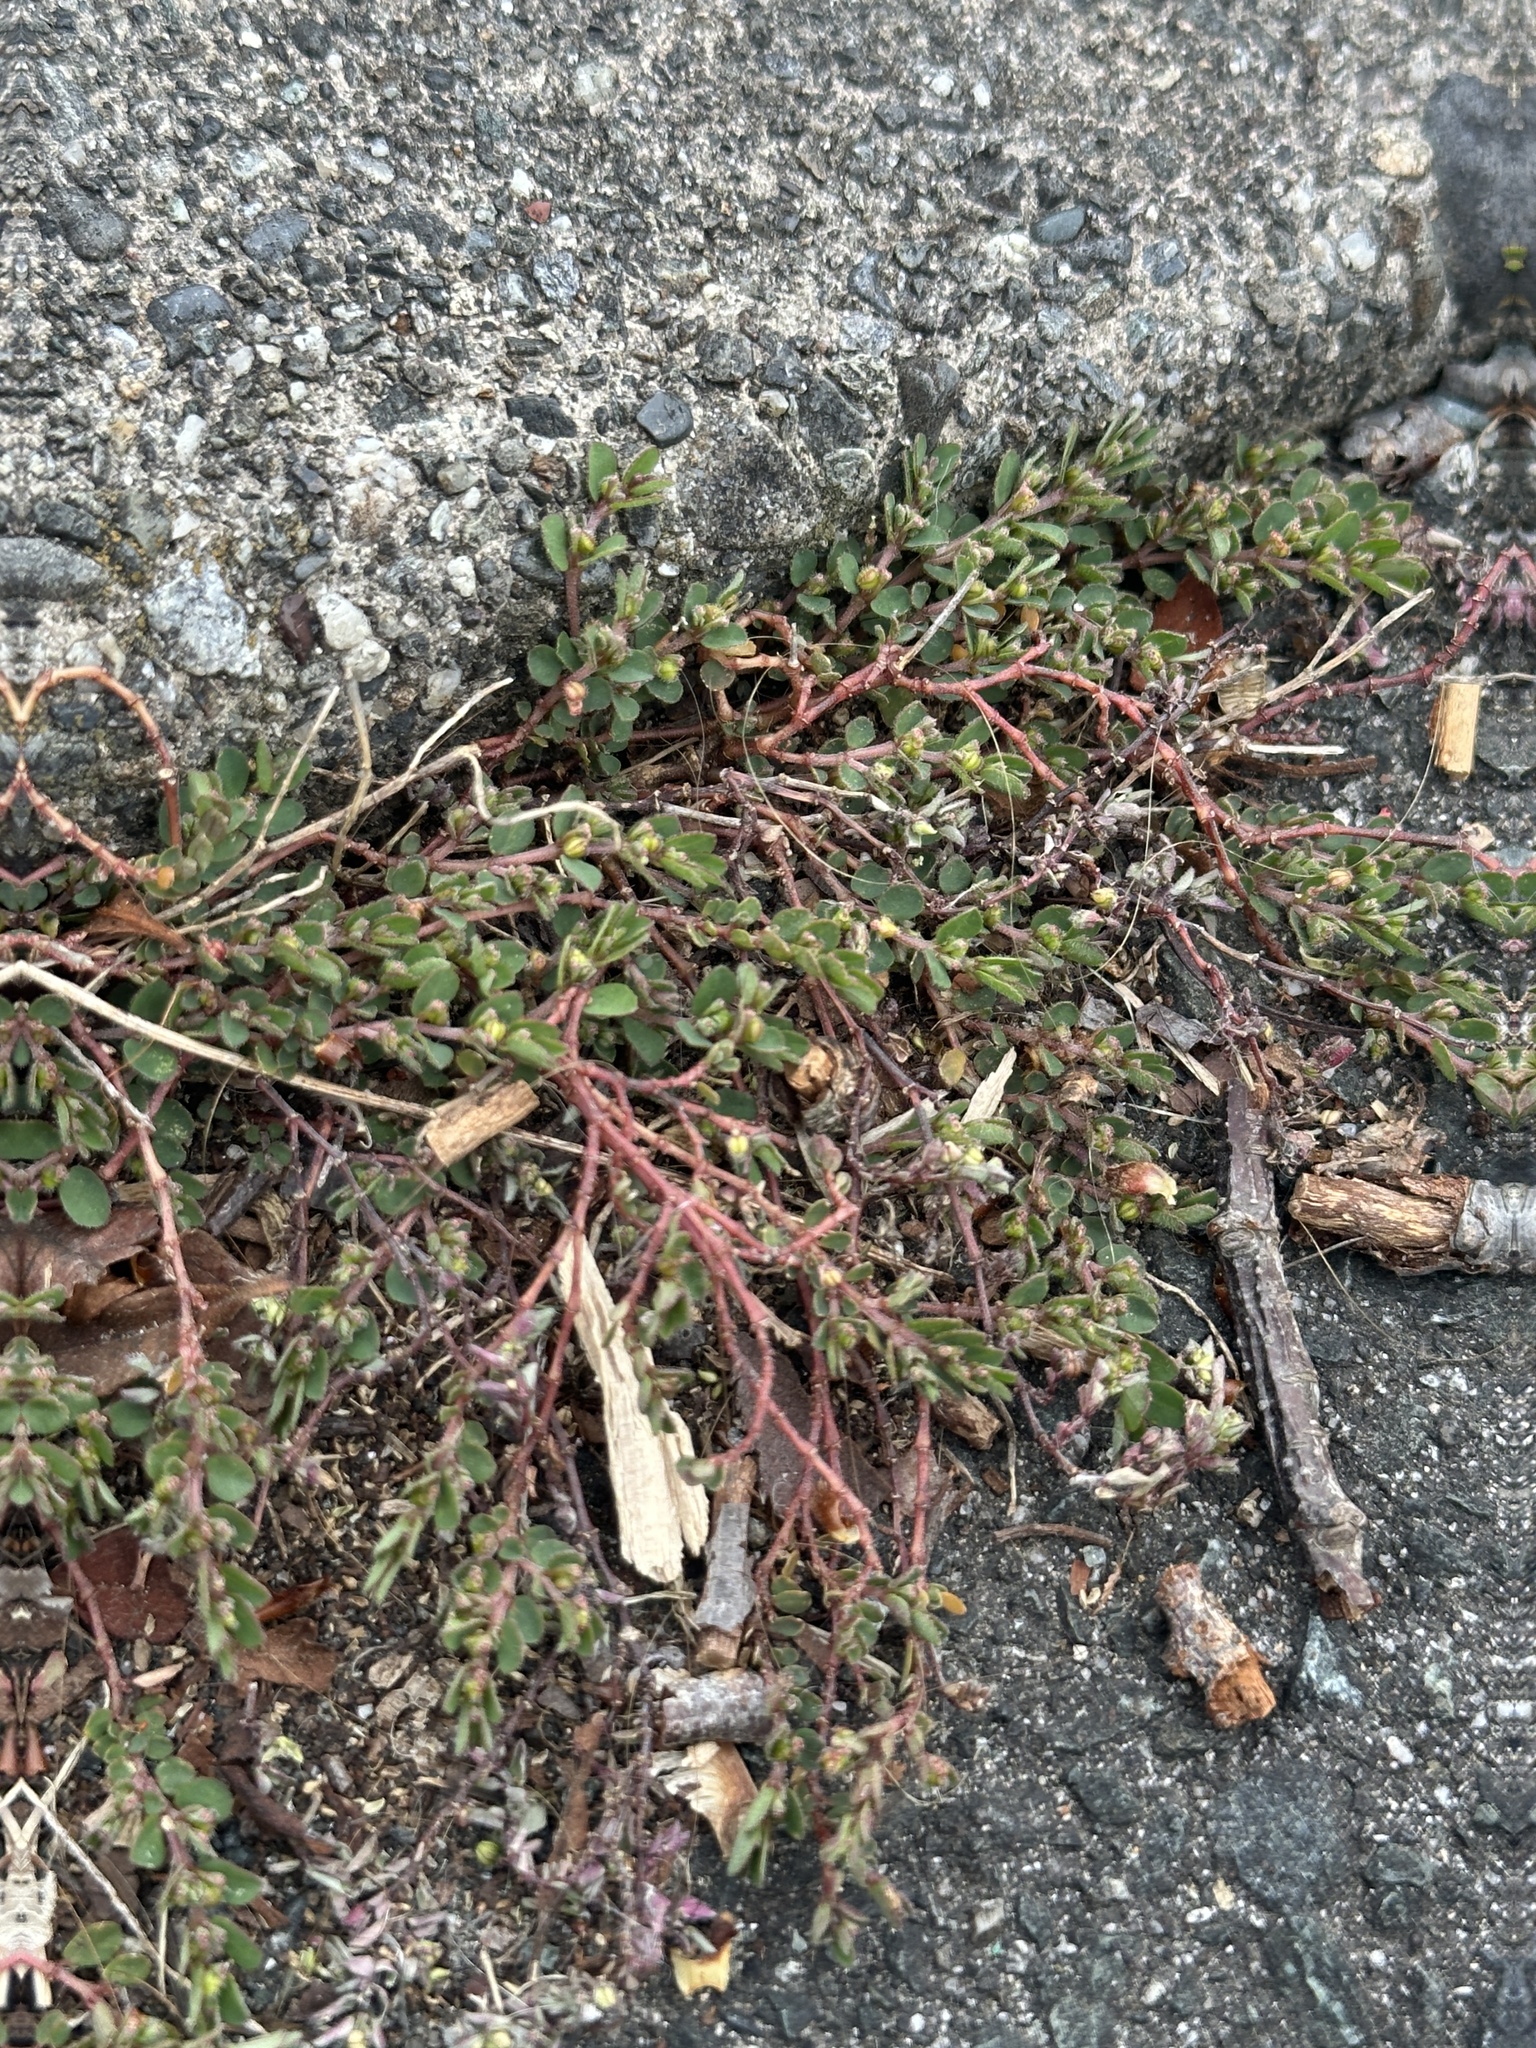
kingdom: Plantae
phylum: Tracheophyta
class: Magnoliopsida
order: Malpighiales
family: Euphorbiaceae
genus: Euphorbia
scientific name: Euphorbia prostrata
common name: Prostrate sandmat
